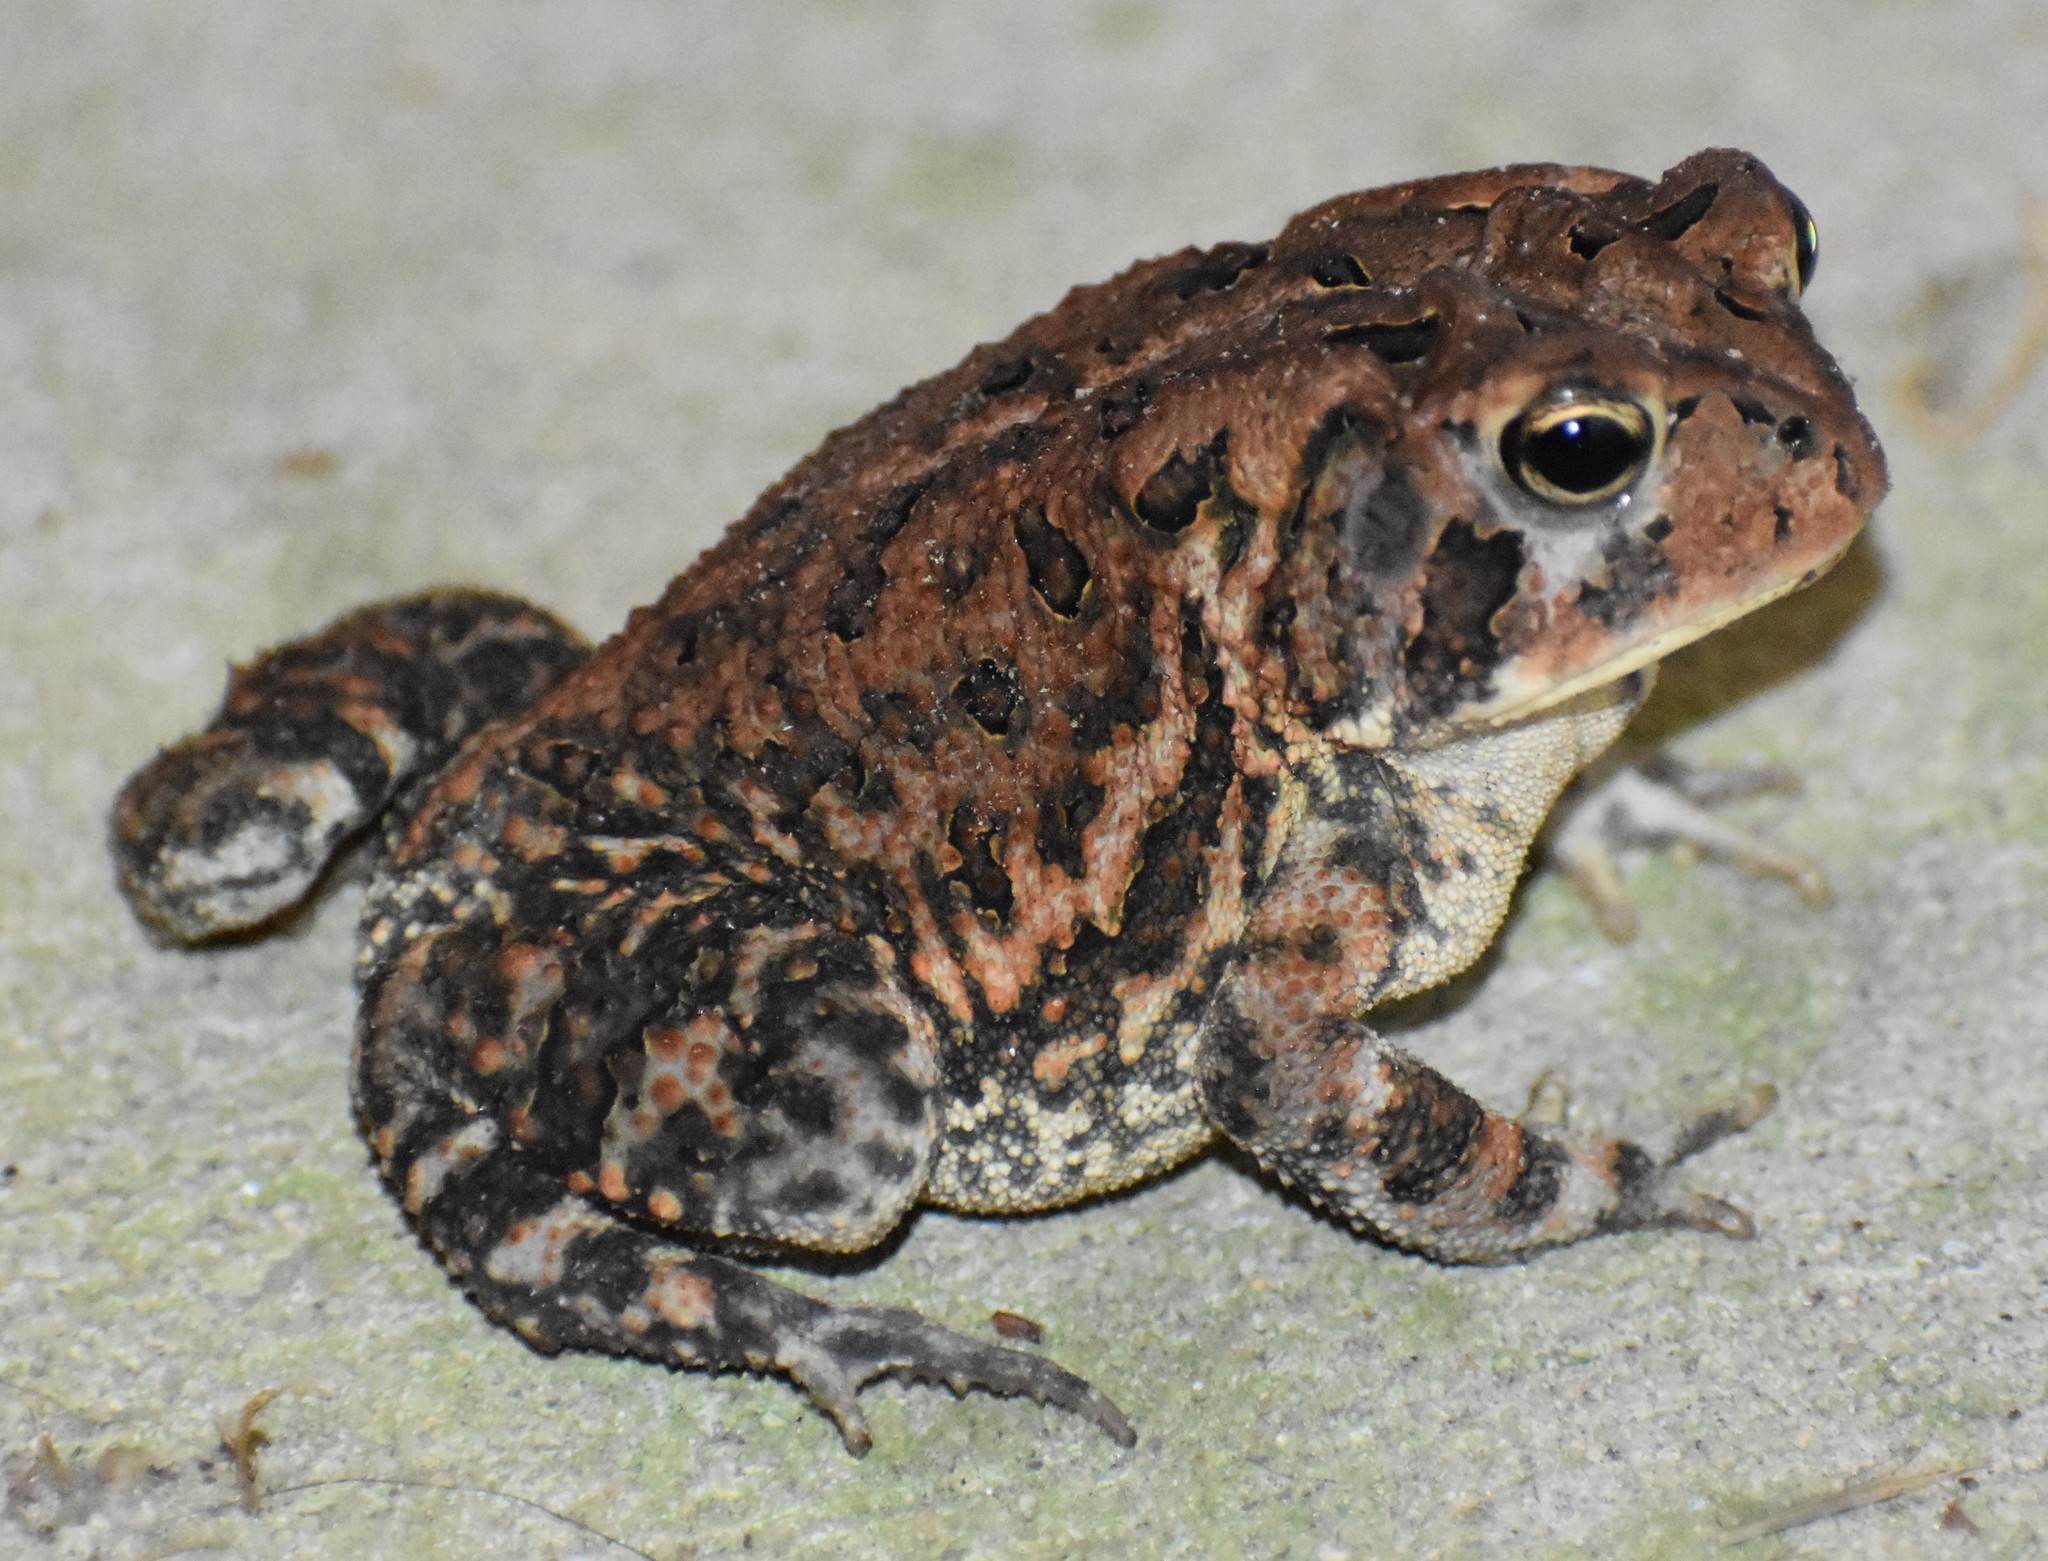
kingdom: Animalia
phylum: Chordata
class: Amphibia
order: Anura
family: Bufonidae
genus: Anaxyrus
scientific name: Anaxyrus terrestris
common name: Southern toad
